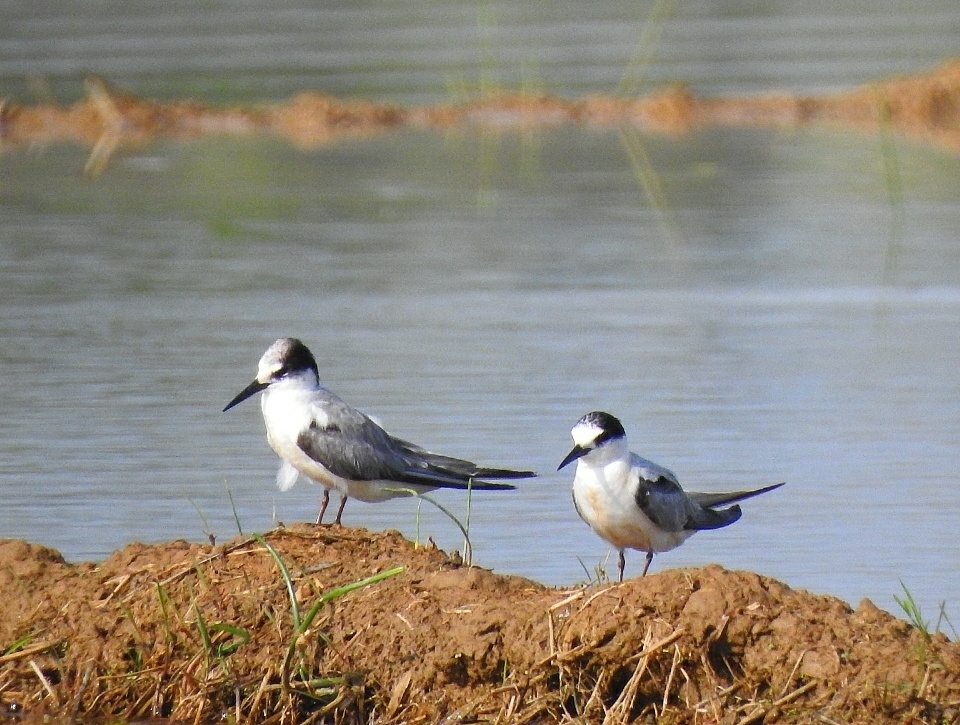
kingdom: Animalia
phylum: Chordata
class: Aves
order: Charadriiformes
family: Laridae
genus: Sternula
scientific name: Sternula albifrons
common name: Little tern
